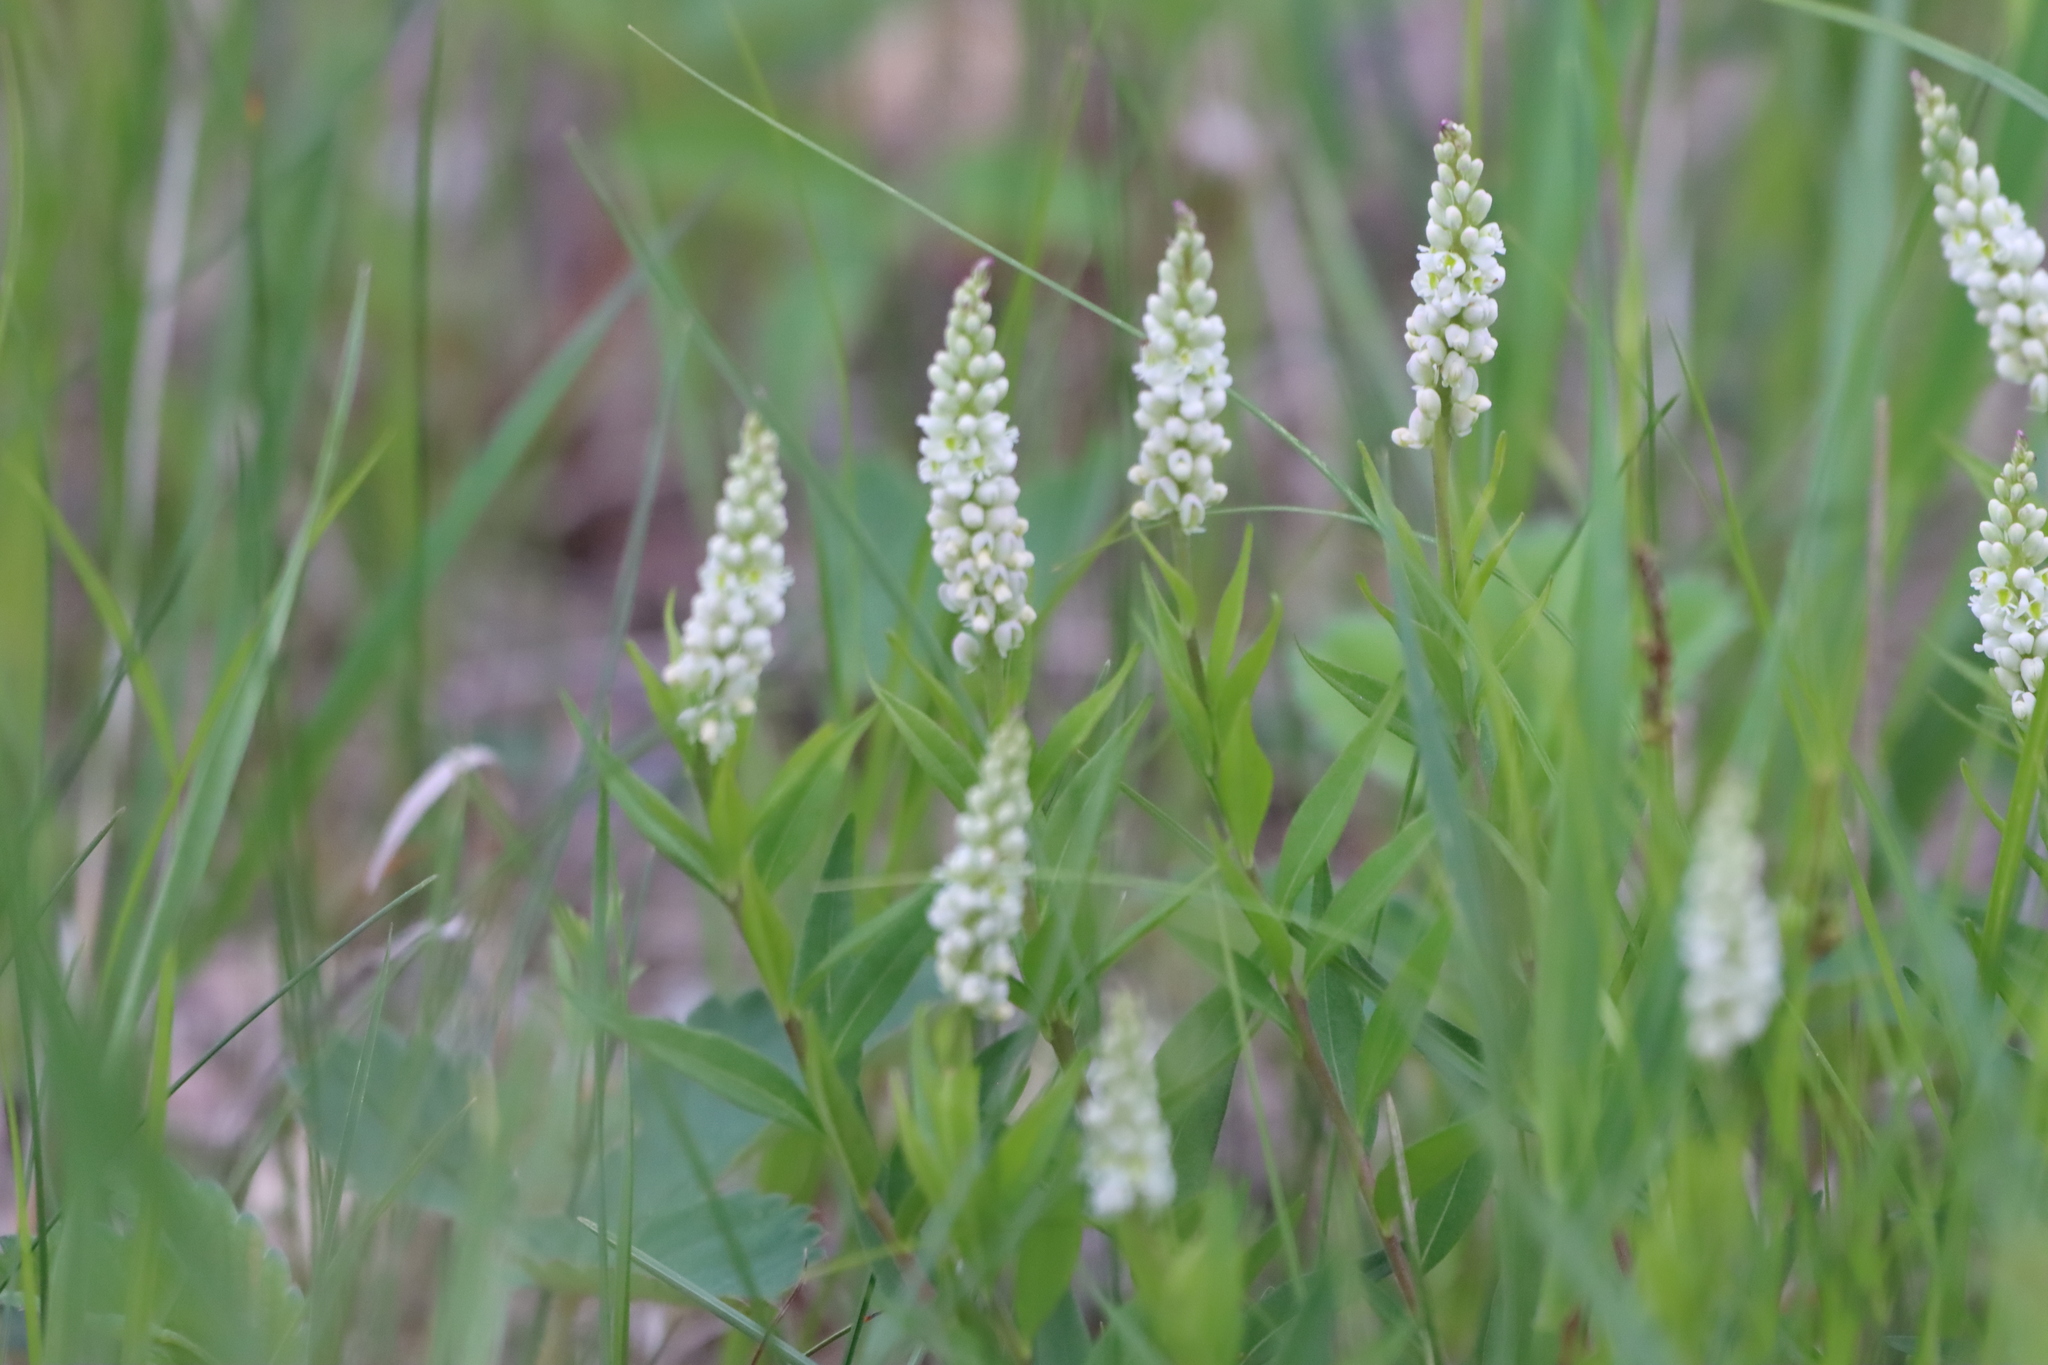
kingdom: Plantae
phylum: Tracheophyta
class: Magnoliopsida
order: Fabales
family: Polygalaceae
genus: Polygala
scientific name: Polygala senega
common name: Seneca snakeroot
